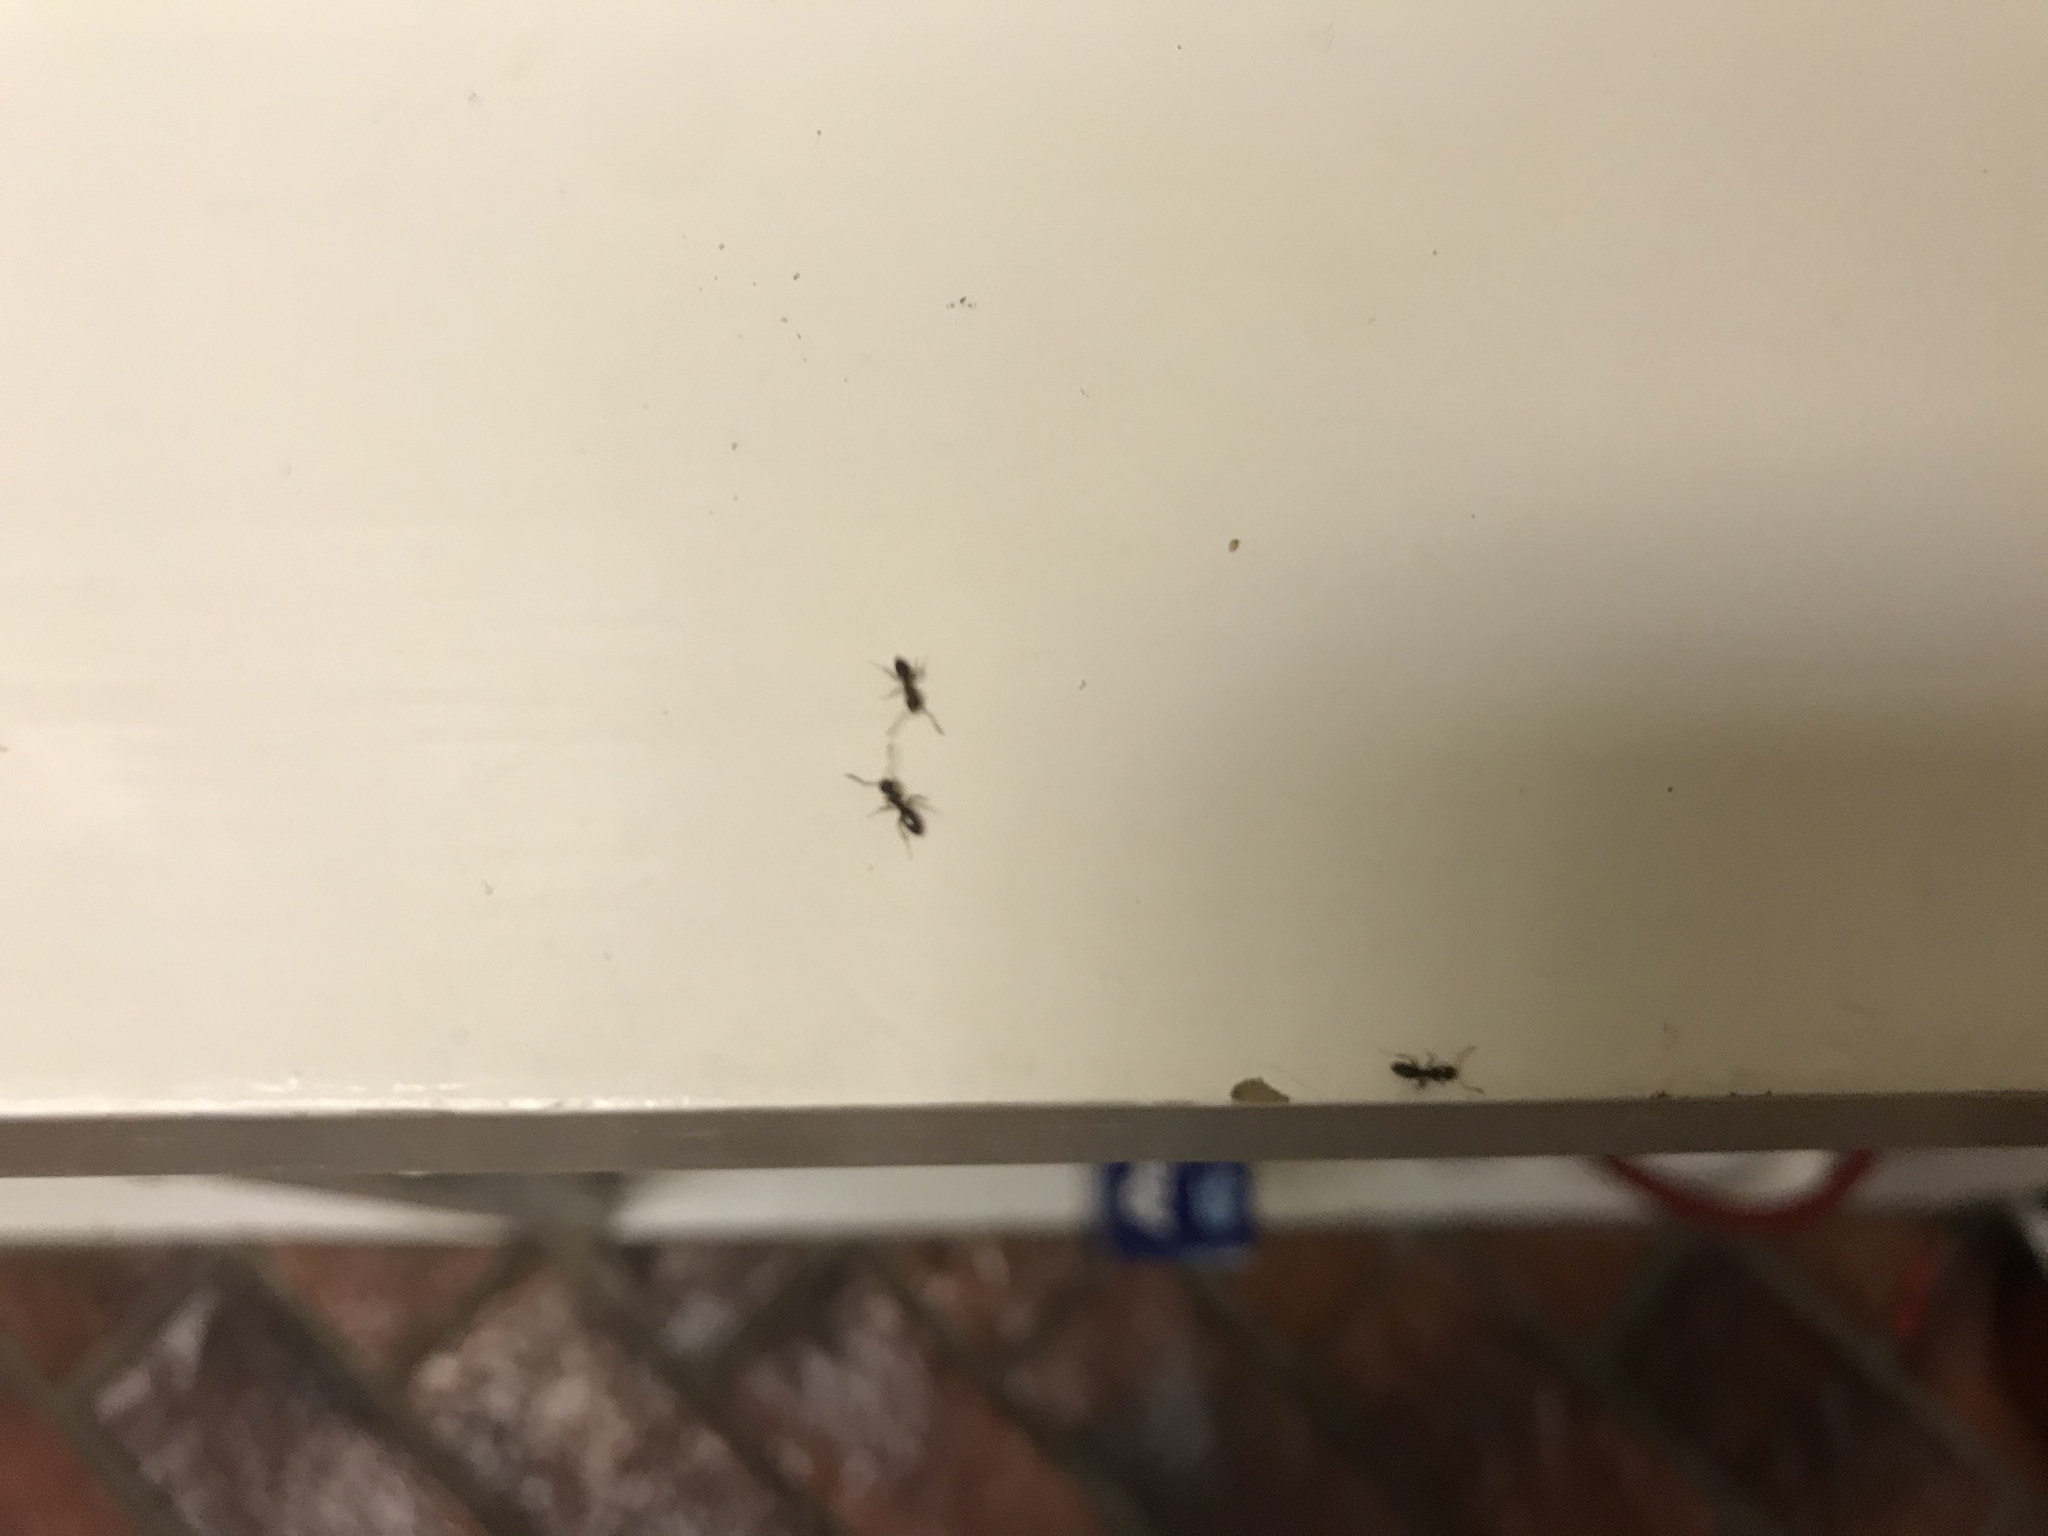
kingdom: Animalia
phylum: Arthropoda
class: Insecta
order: Hymenoptera
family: Formicidae
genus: Linepithema
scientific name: Linepithema humile
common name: Argentine ant
